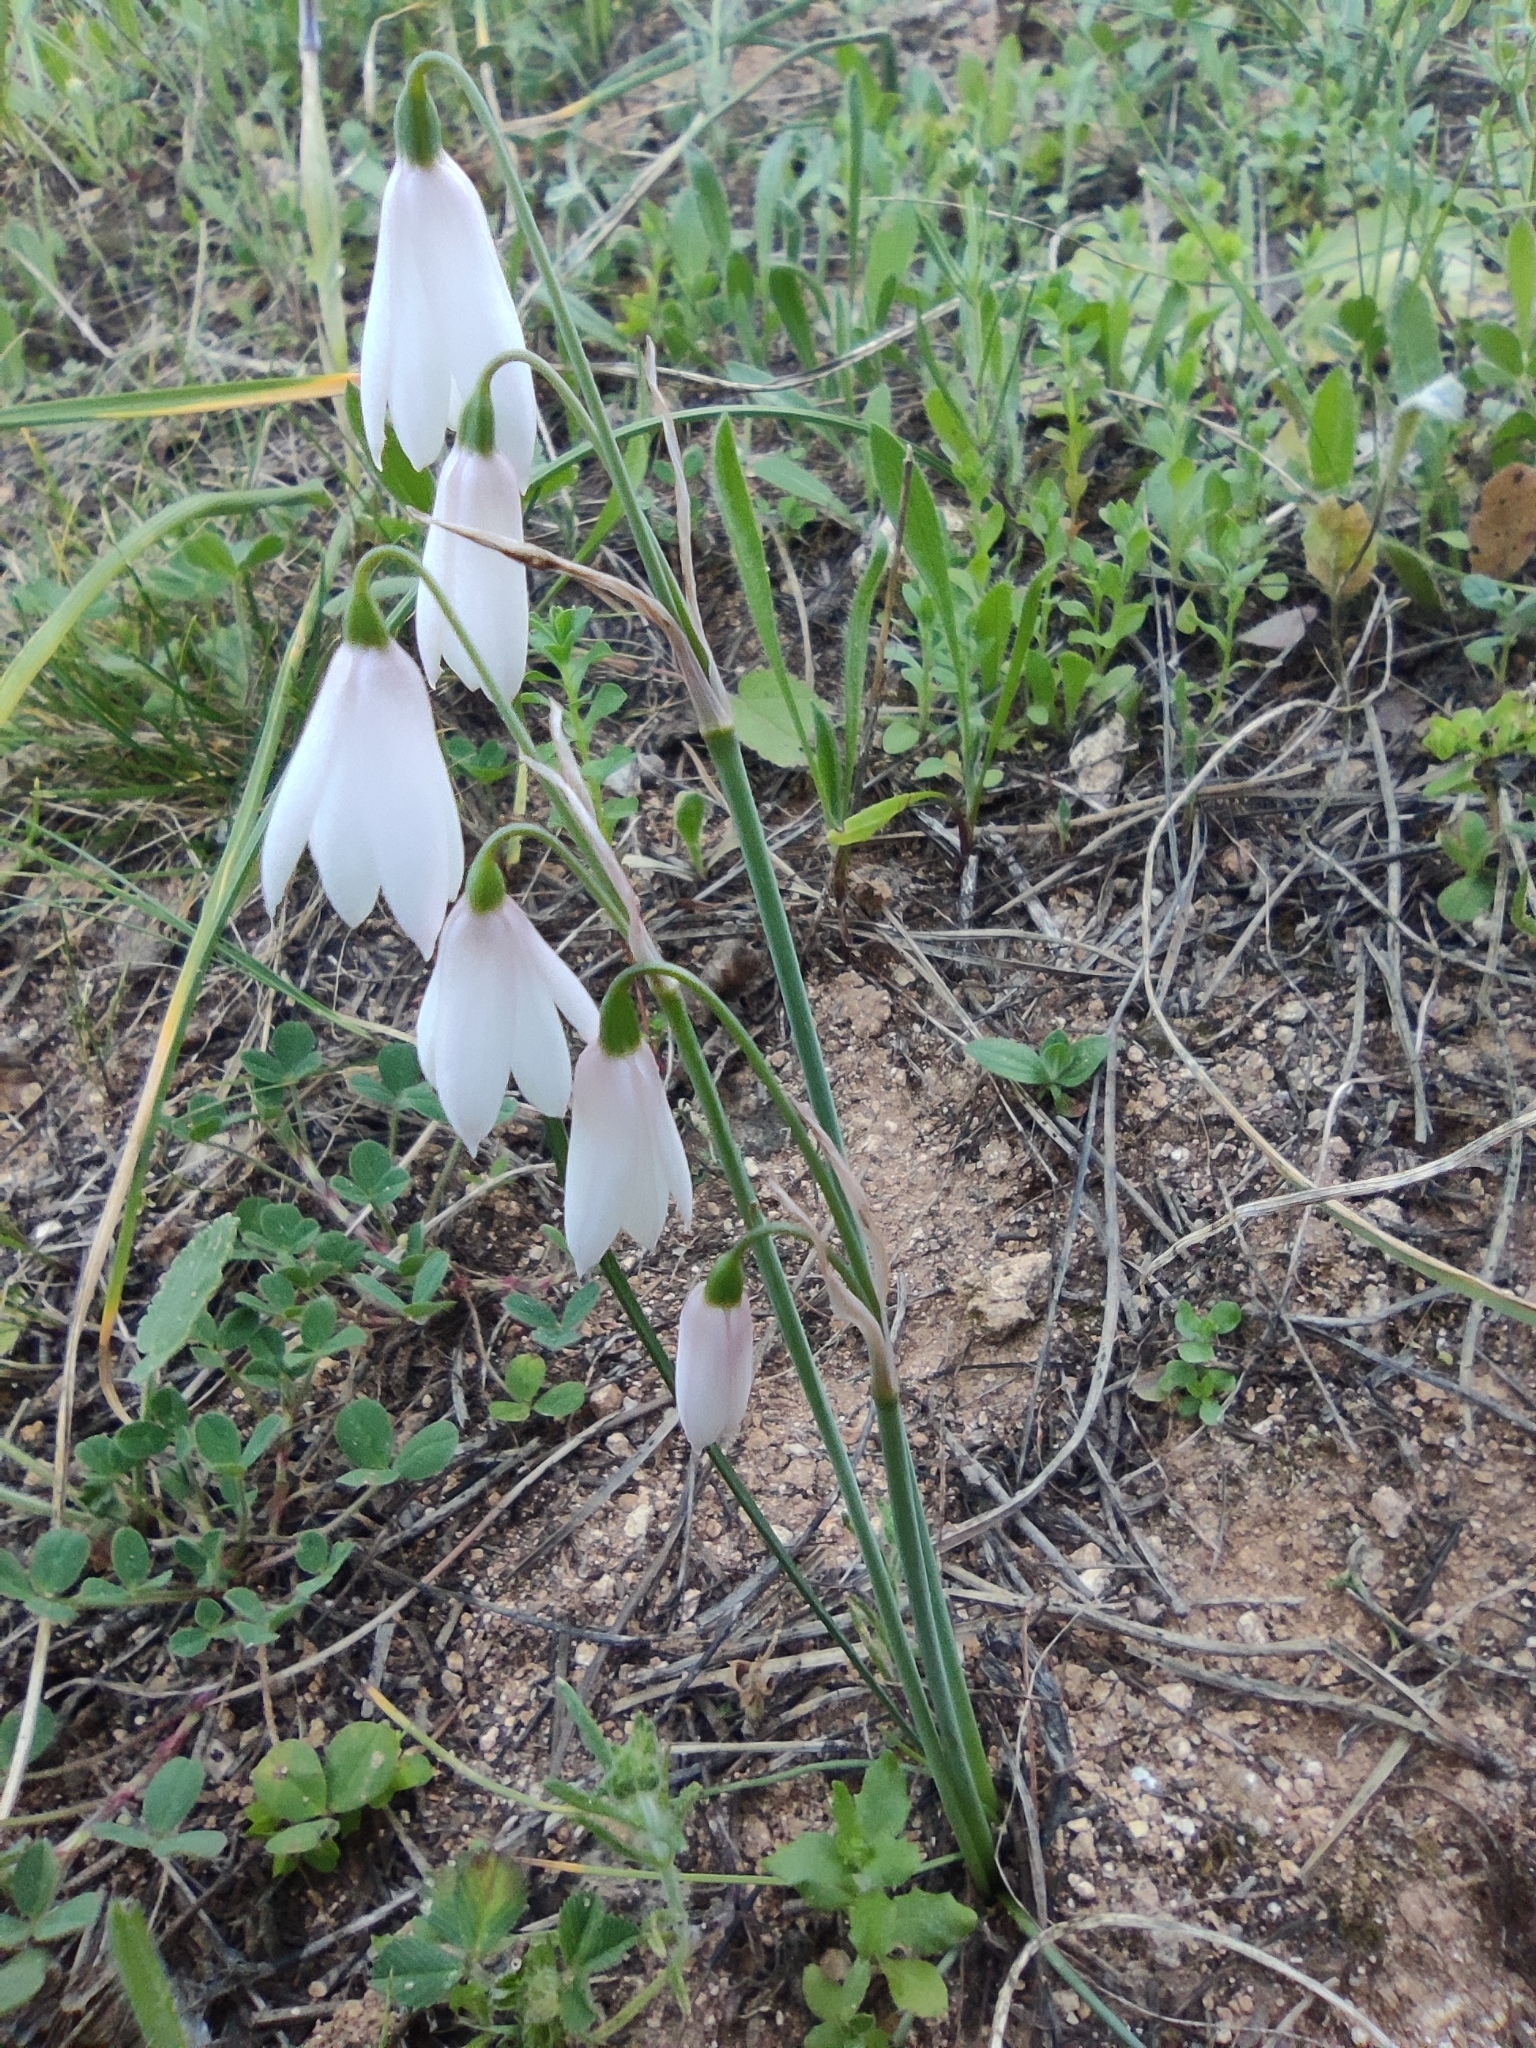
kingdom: Plantae
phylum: Tracheophyta
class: Liliopsida
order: Asparagales
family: Amaryllidaceae
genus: Acis
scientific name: Acis trichophylla
